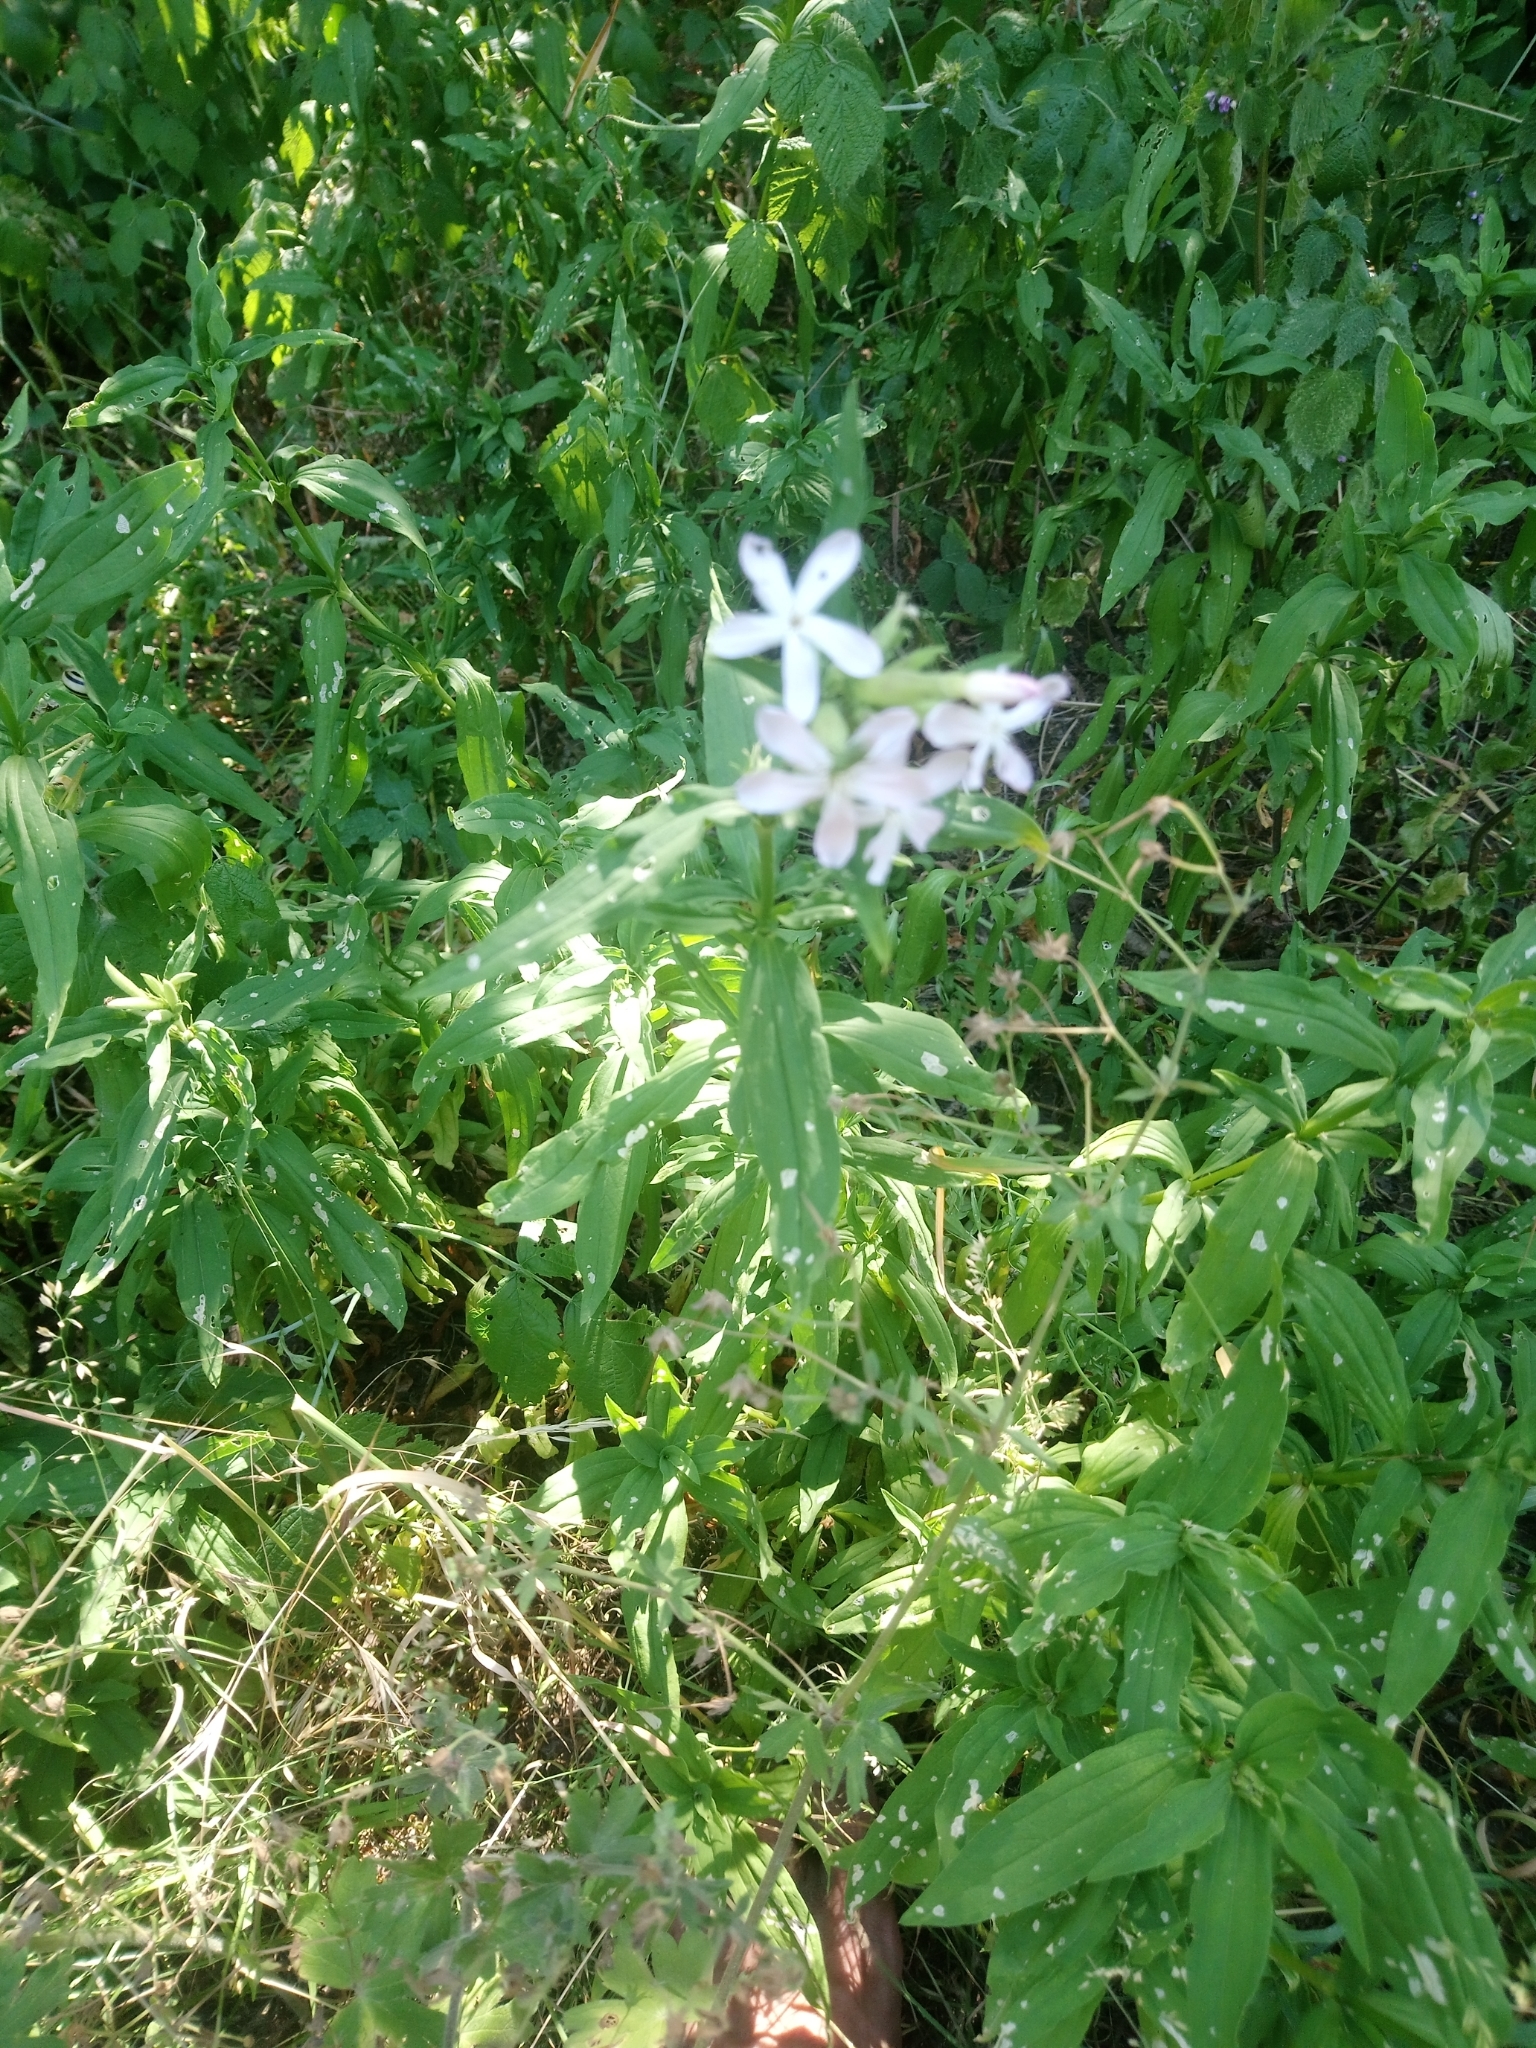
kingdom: Plantae
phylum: Tracheophyta
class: Magnoliopsida
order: Caryophyllales
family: Caryophyllaceae
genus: Saponaria
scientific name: Saponaria officinalis
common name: Soapwort
